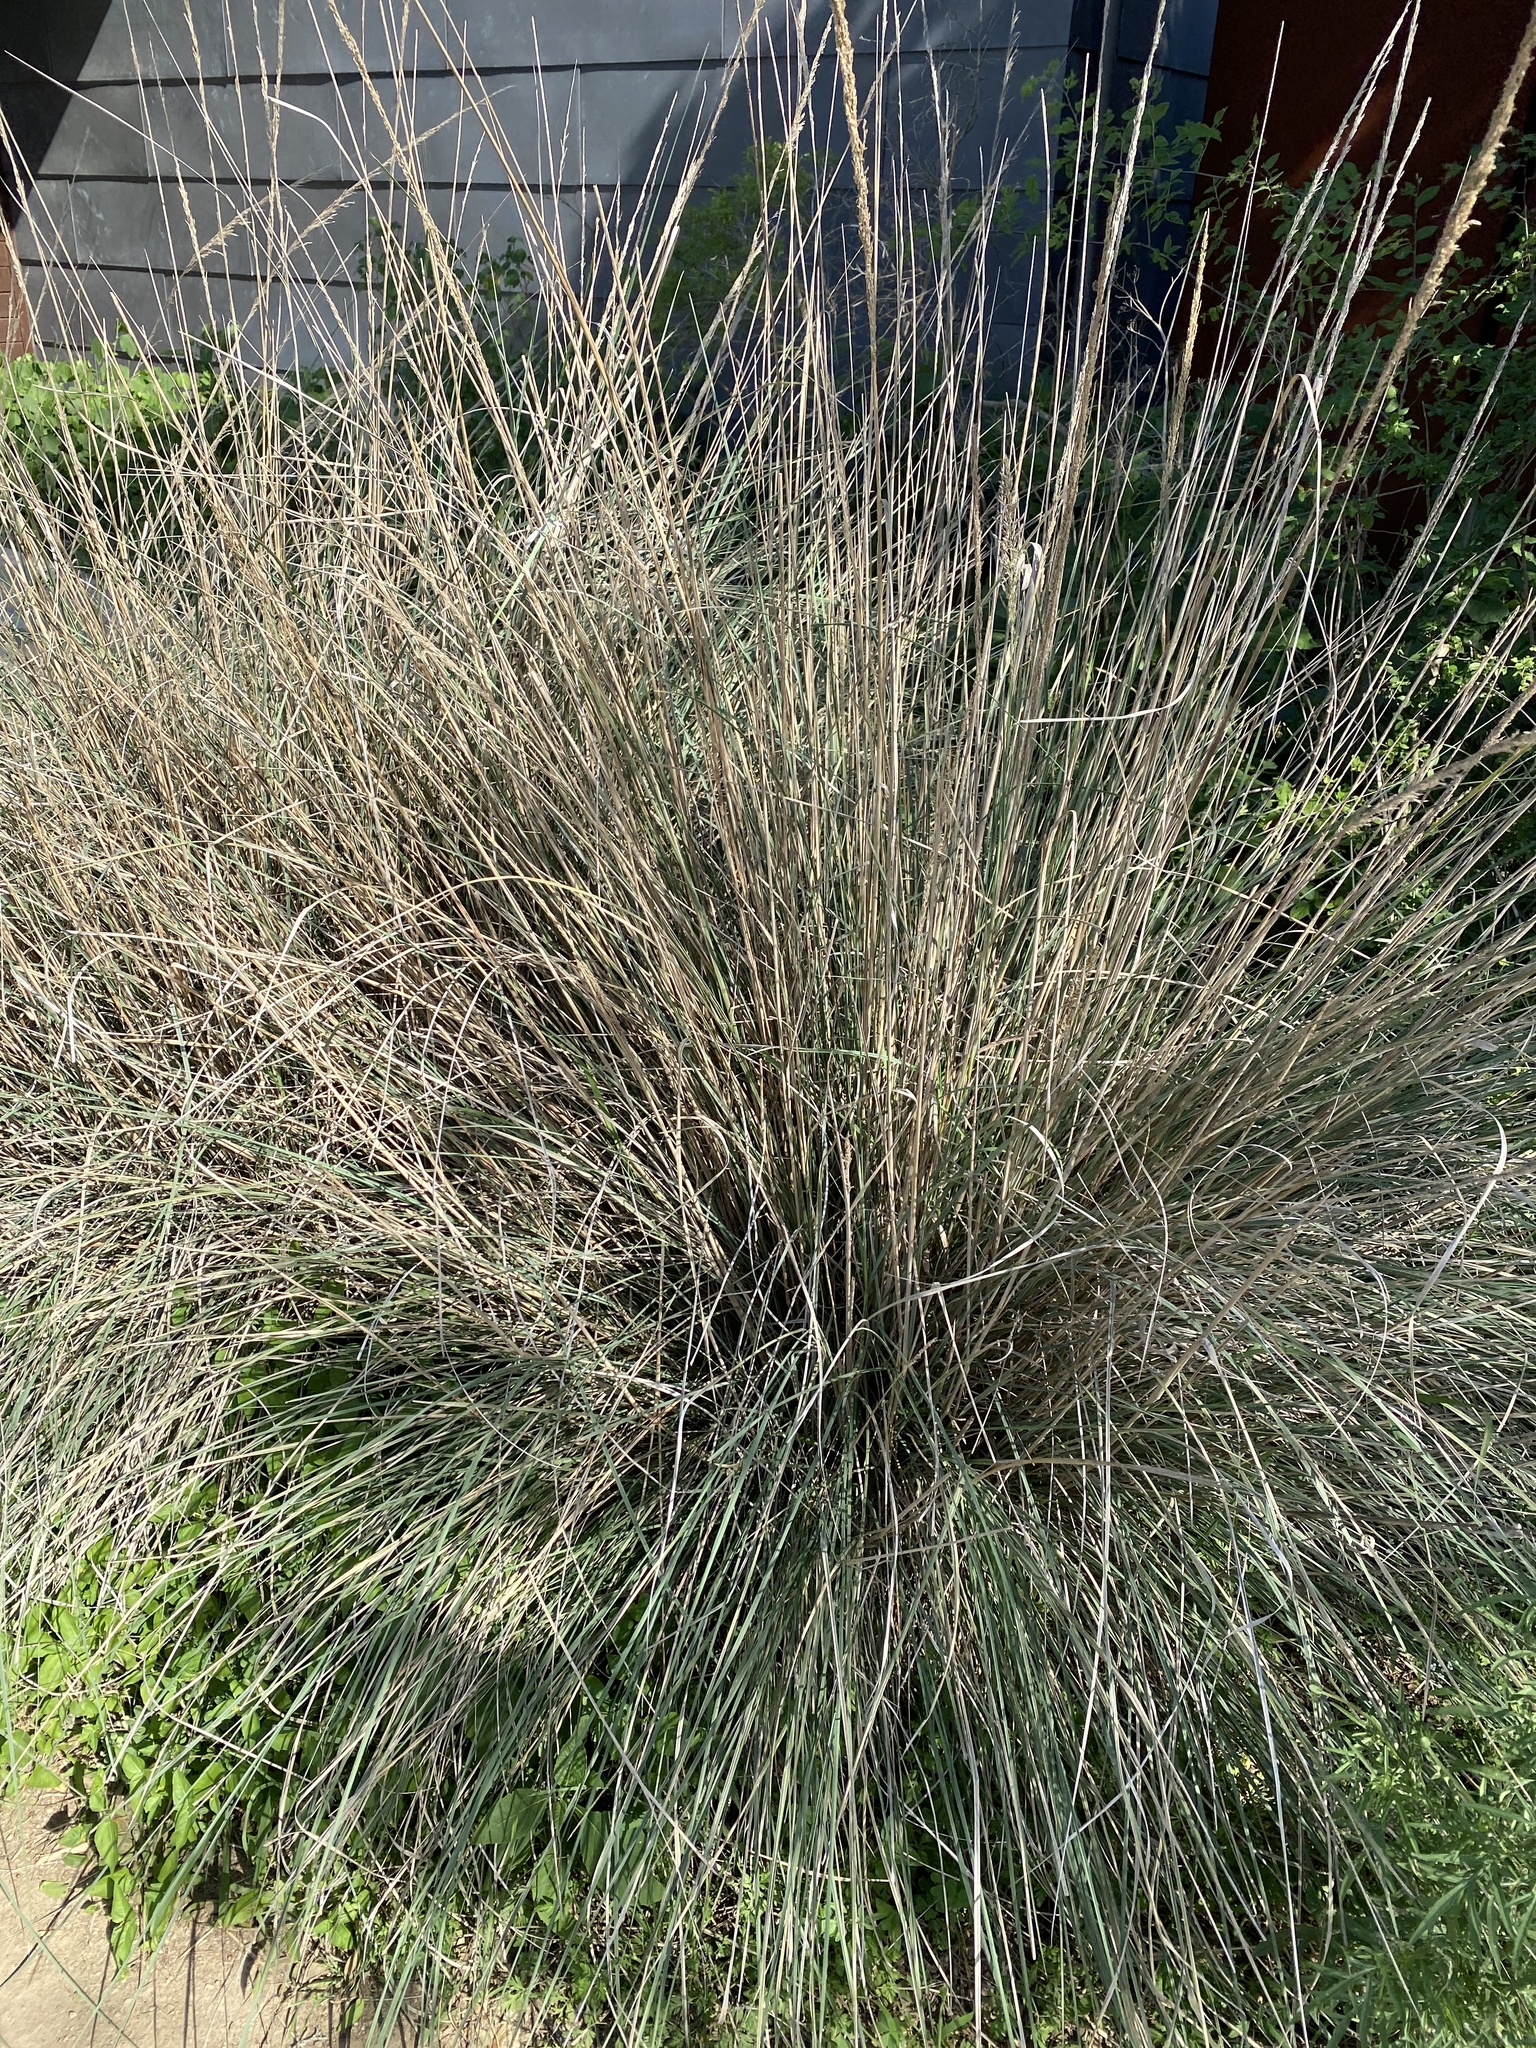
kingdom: Plantae
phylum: Tracheophyta
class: Liliopsida
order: Poales
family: Poaceae
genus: Muhlenbergia
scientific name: Muhlenbergia lindheimeri
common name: Lindheimer's muhly
